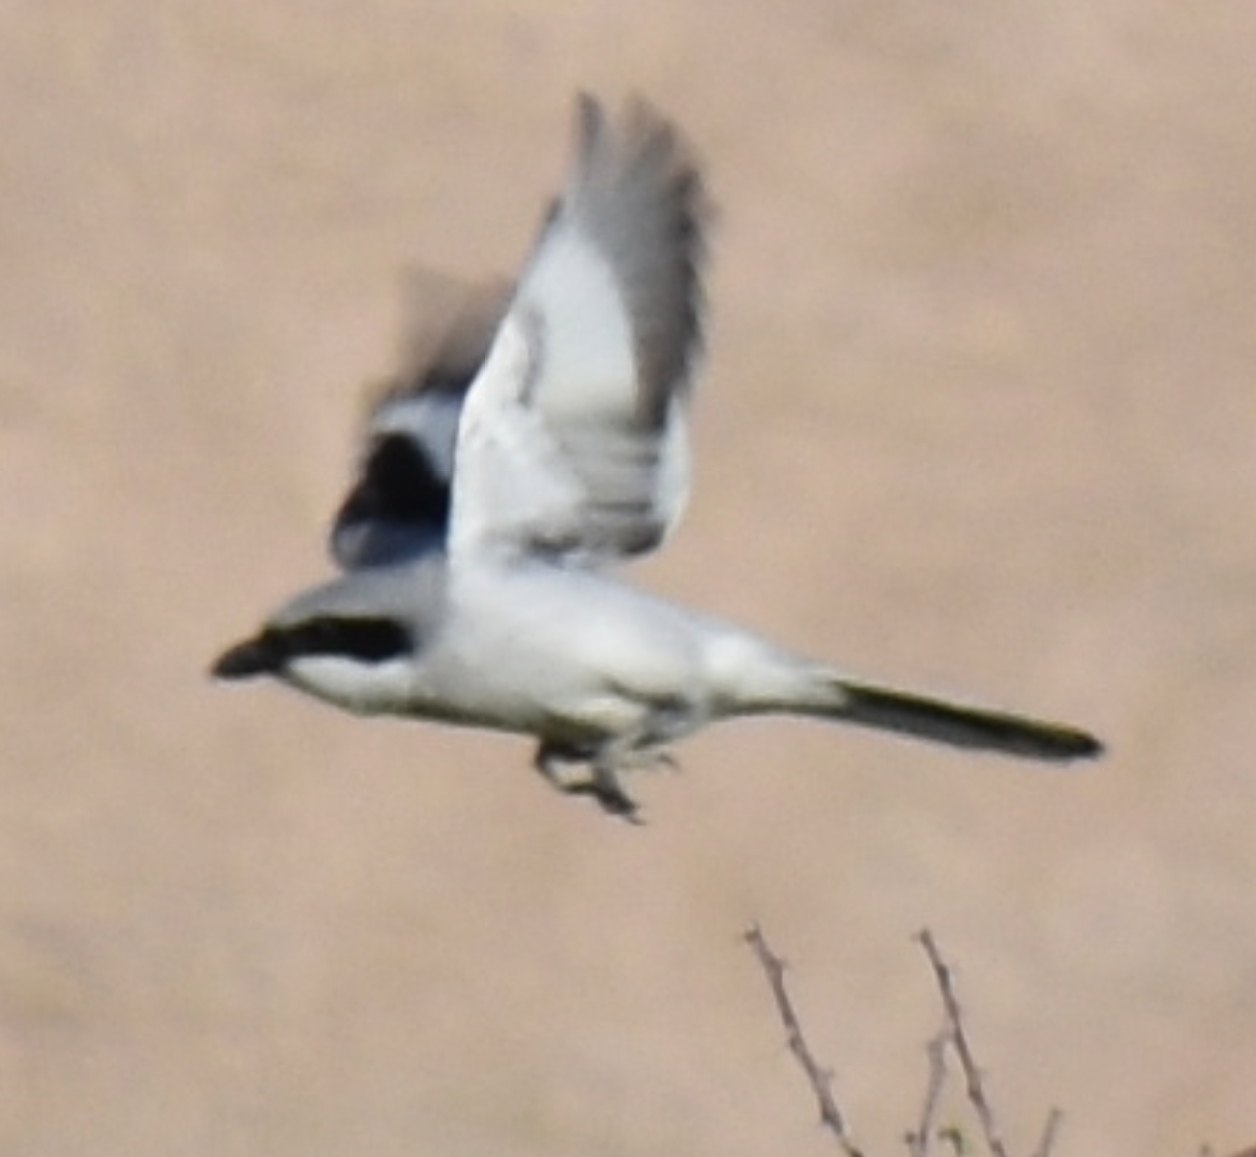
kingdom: Animalia
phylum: Chordata
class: Aves
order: Passeriformes
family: Laniidae
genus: Lanius
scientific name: Lanius excubitor
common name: Great grey shrike
